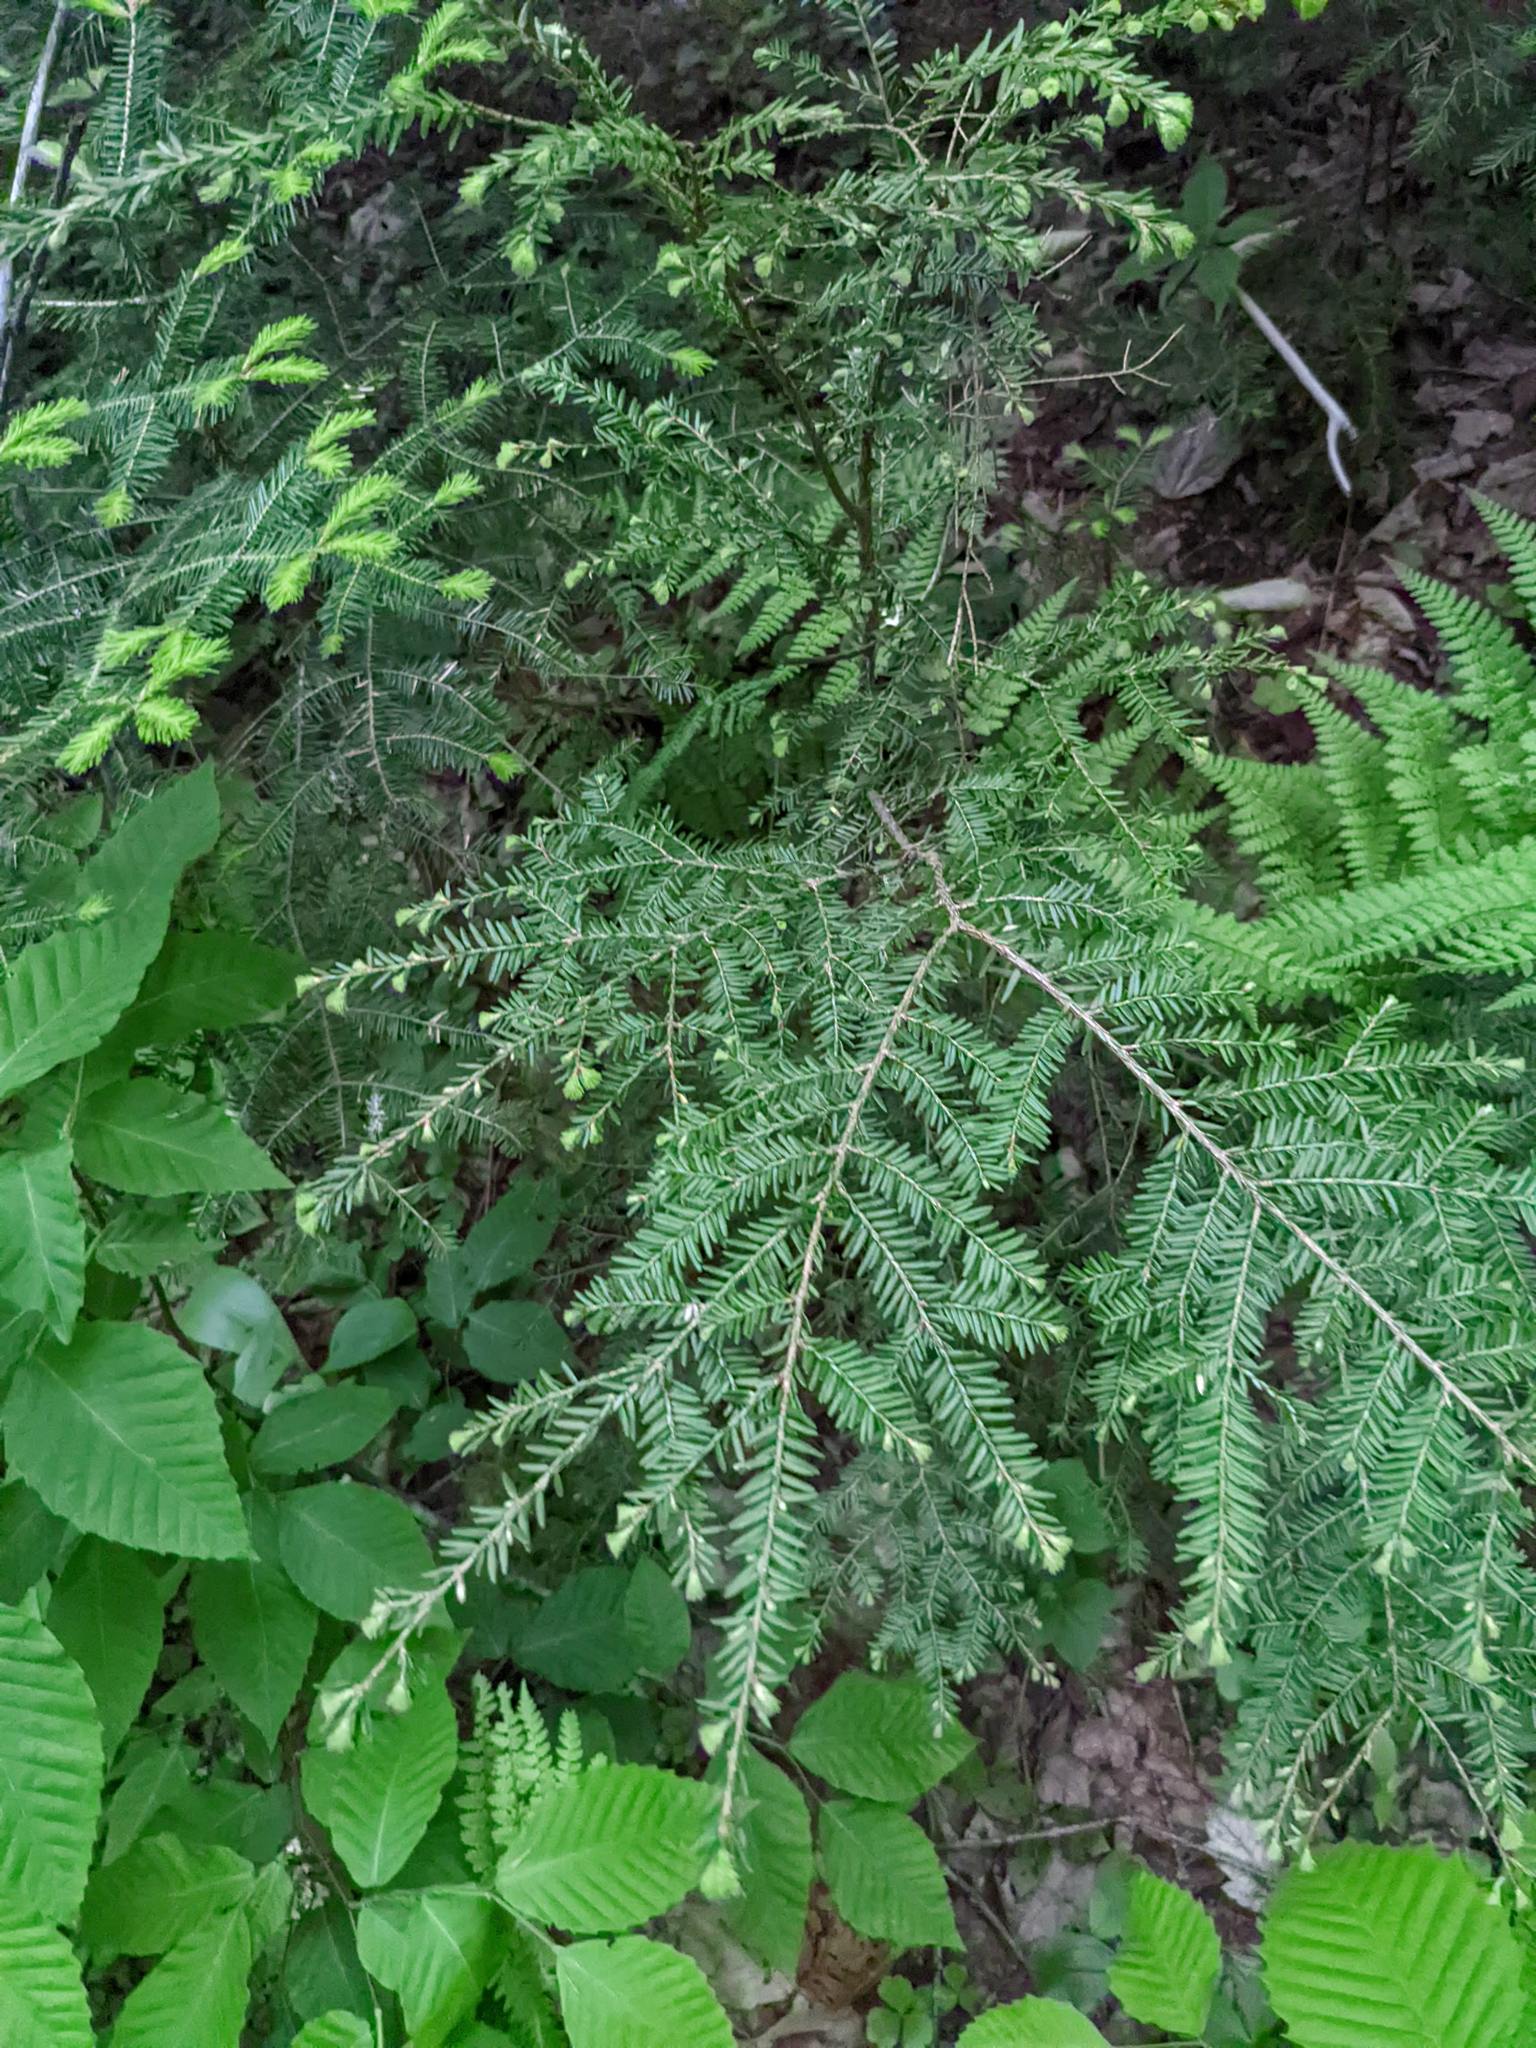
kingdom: Plantae
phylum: Tracheophyta
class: Pinopsida
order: Pinales
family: Pinaceae
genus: Tsuga
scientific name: Tsuga canadensis
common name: Eastern hemlock
